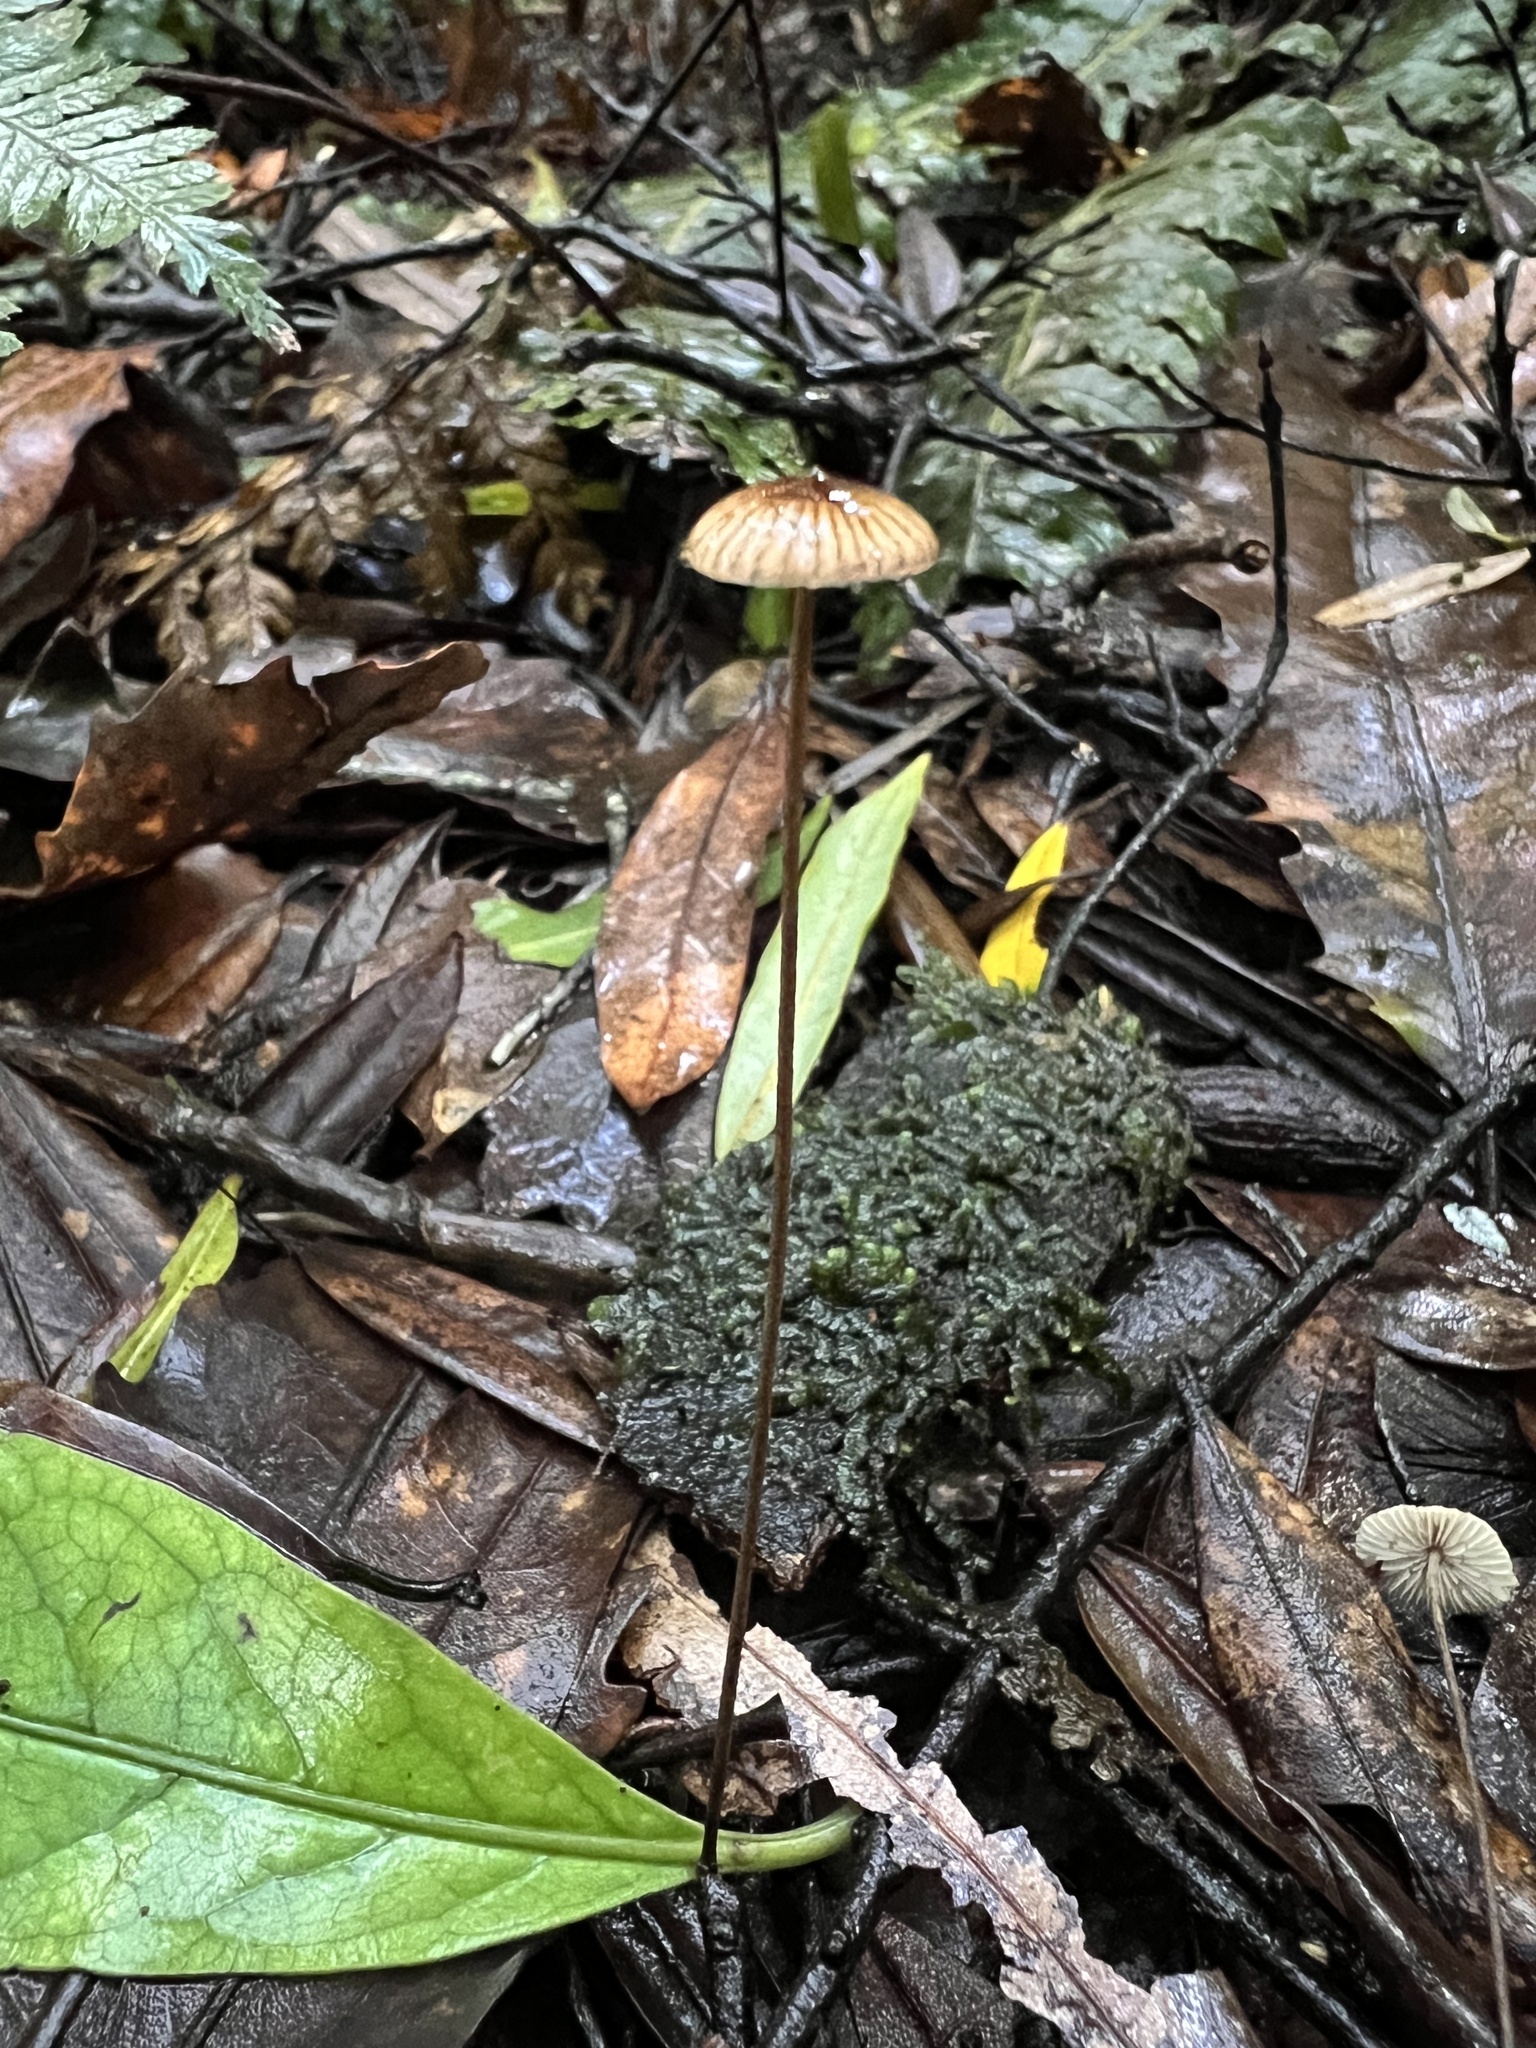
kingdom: Fungi
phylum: Basidiomycota
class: Agaricomycetes
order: Agaricales
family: Marasmiaceae
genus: Crinipellis
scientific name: Crinipellis procera
